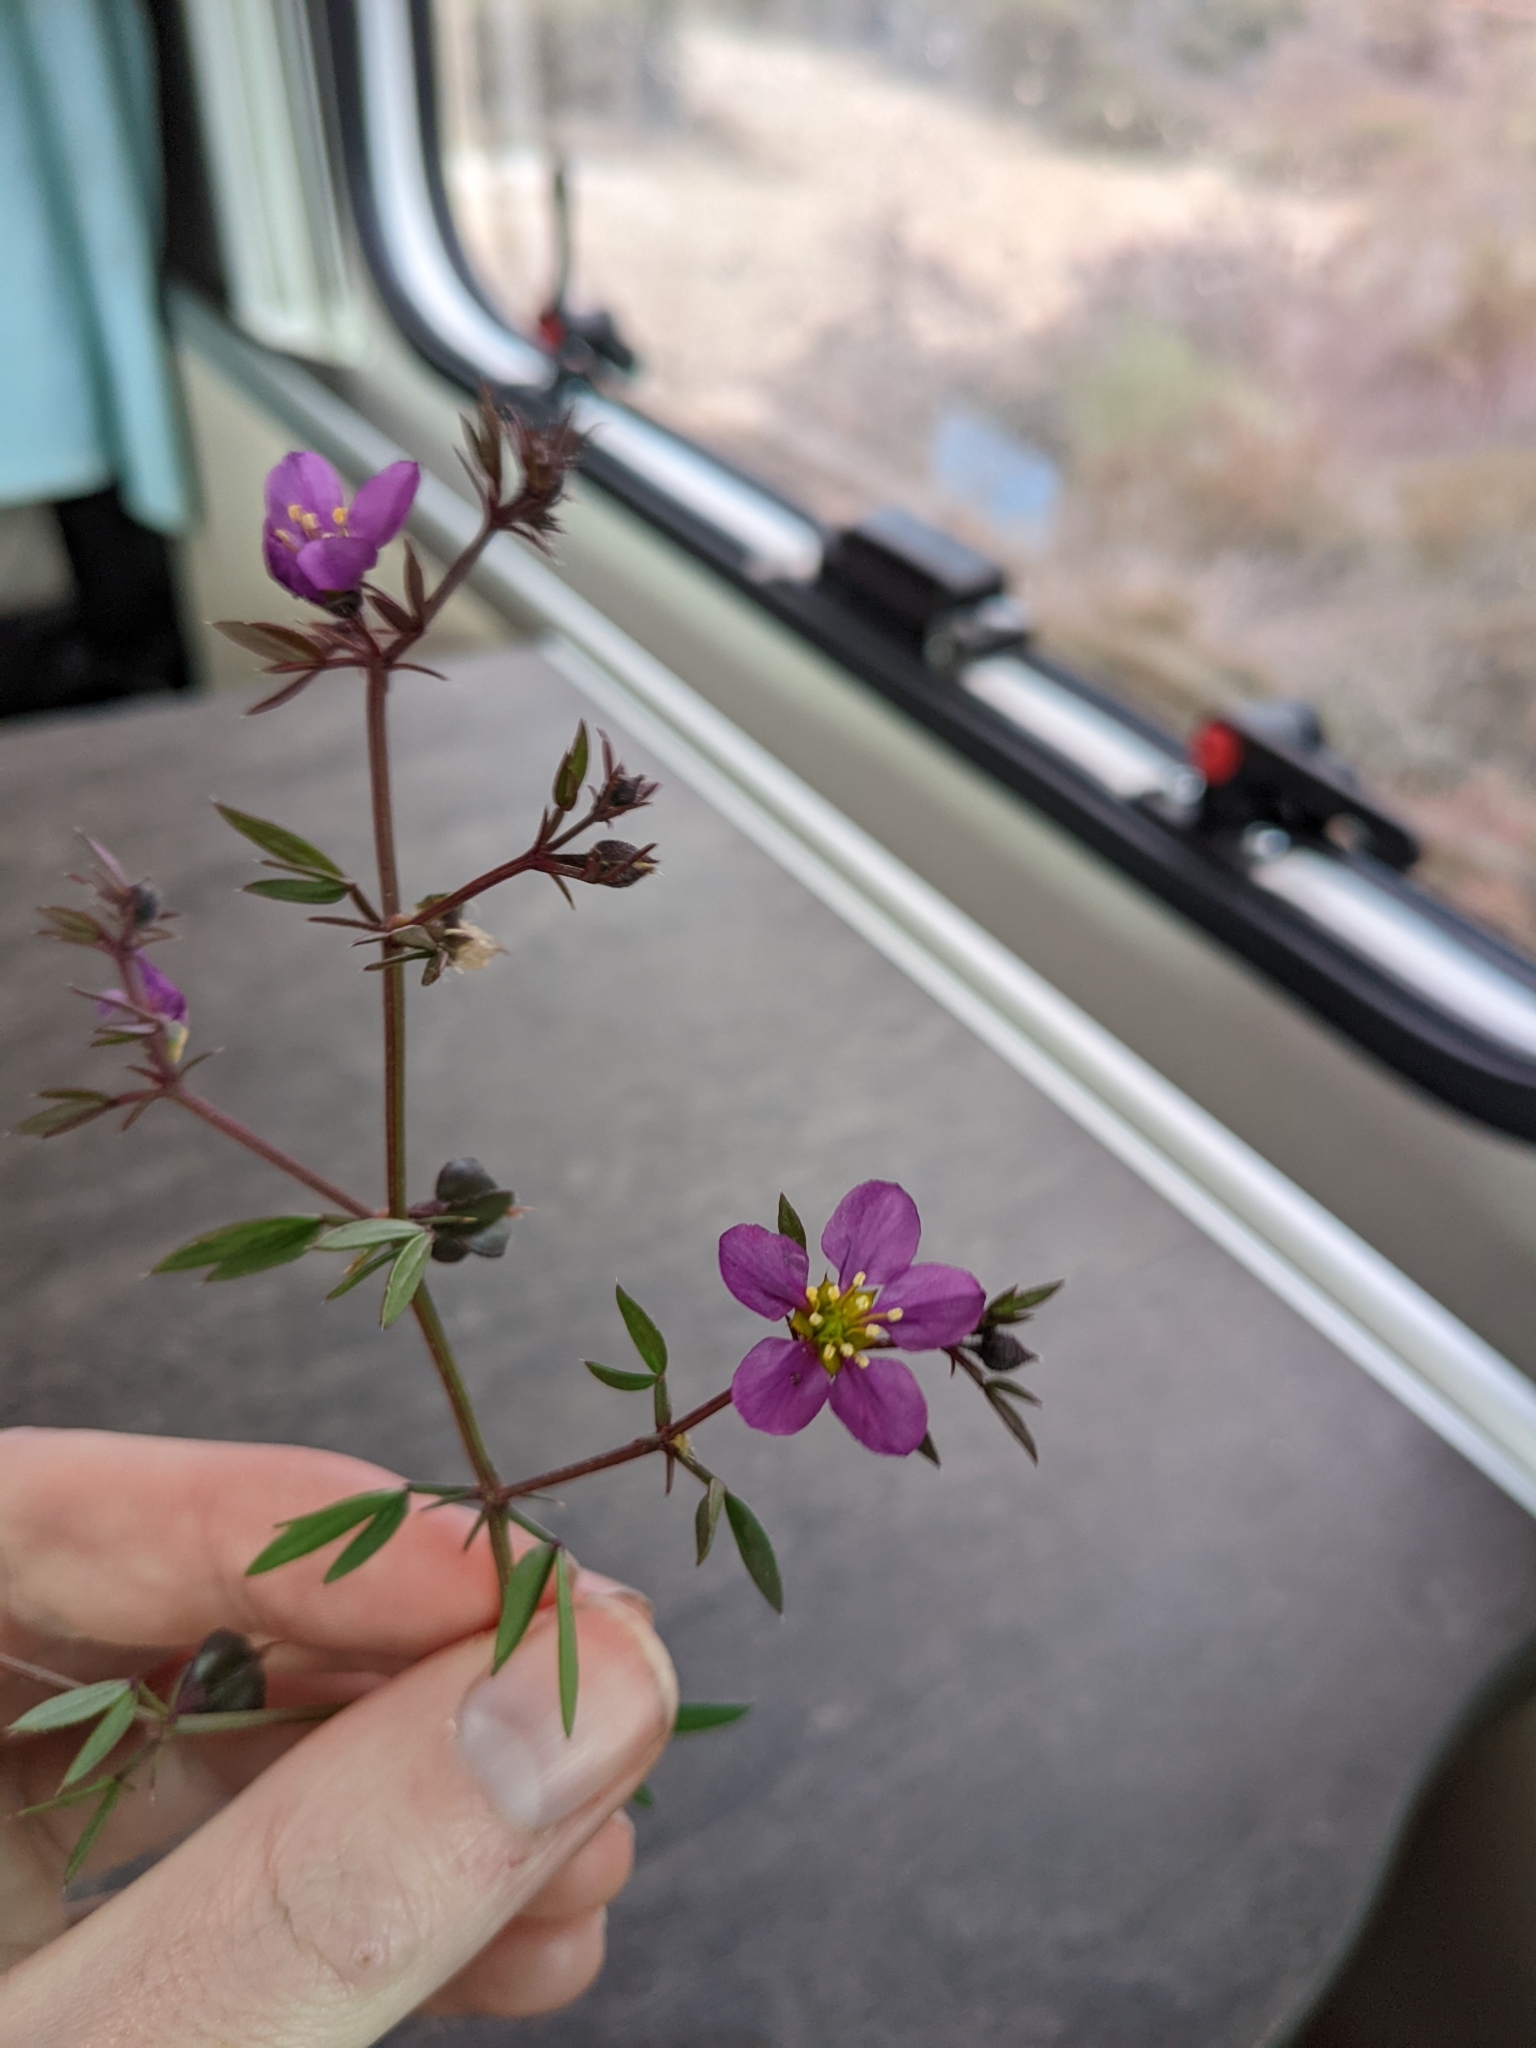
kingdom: Plantae
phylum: Tracheophyta
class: Magnoliopsida
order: Zygophyllales
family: Zygophyllaceae
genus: Fagonia
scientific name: Fagonia cretica
